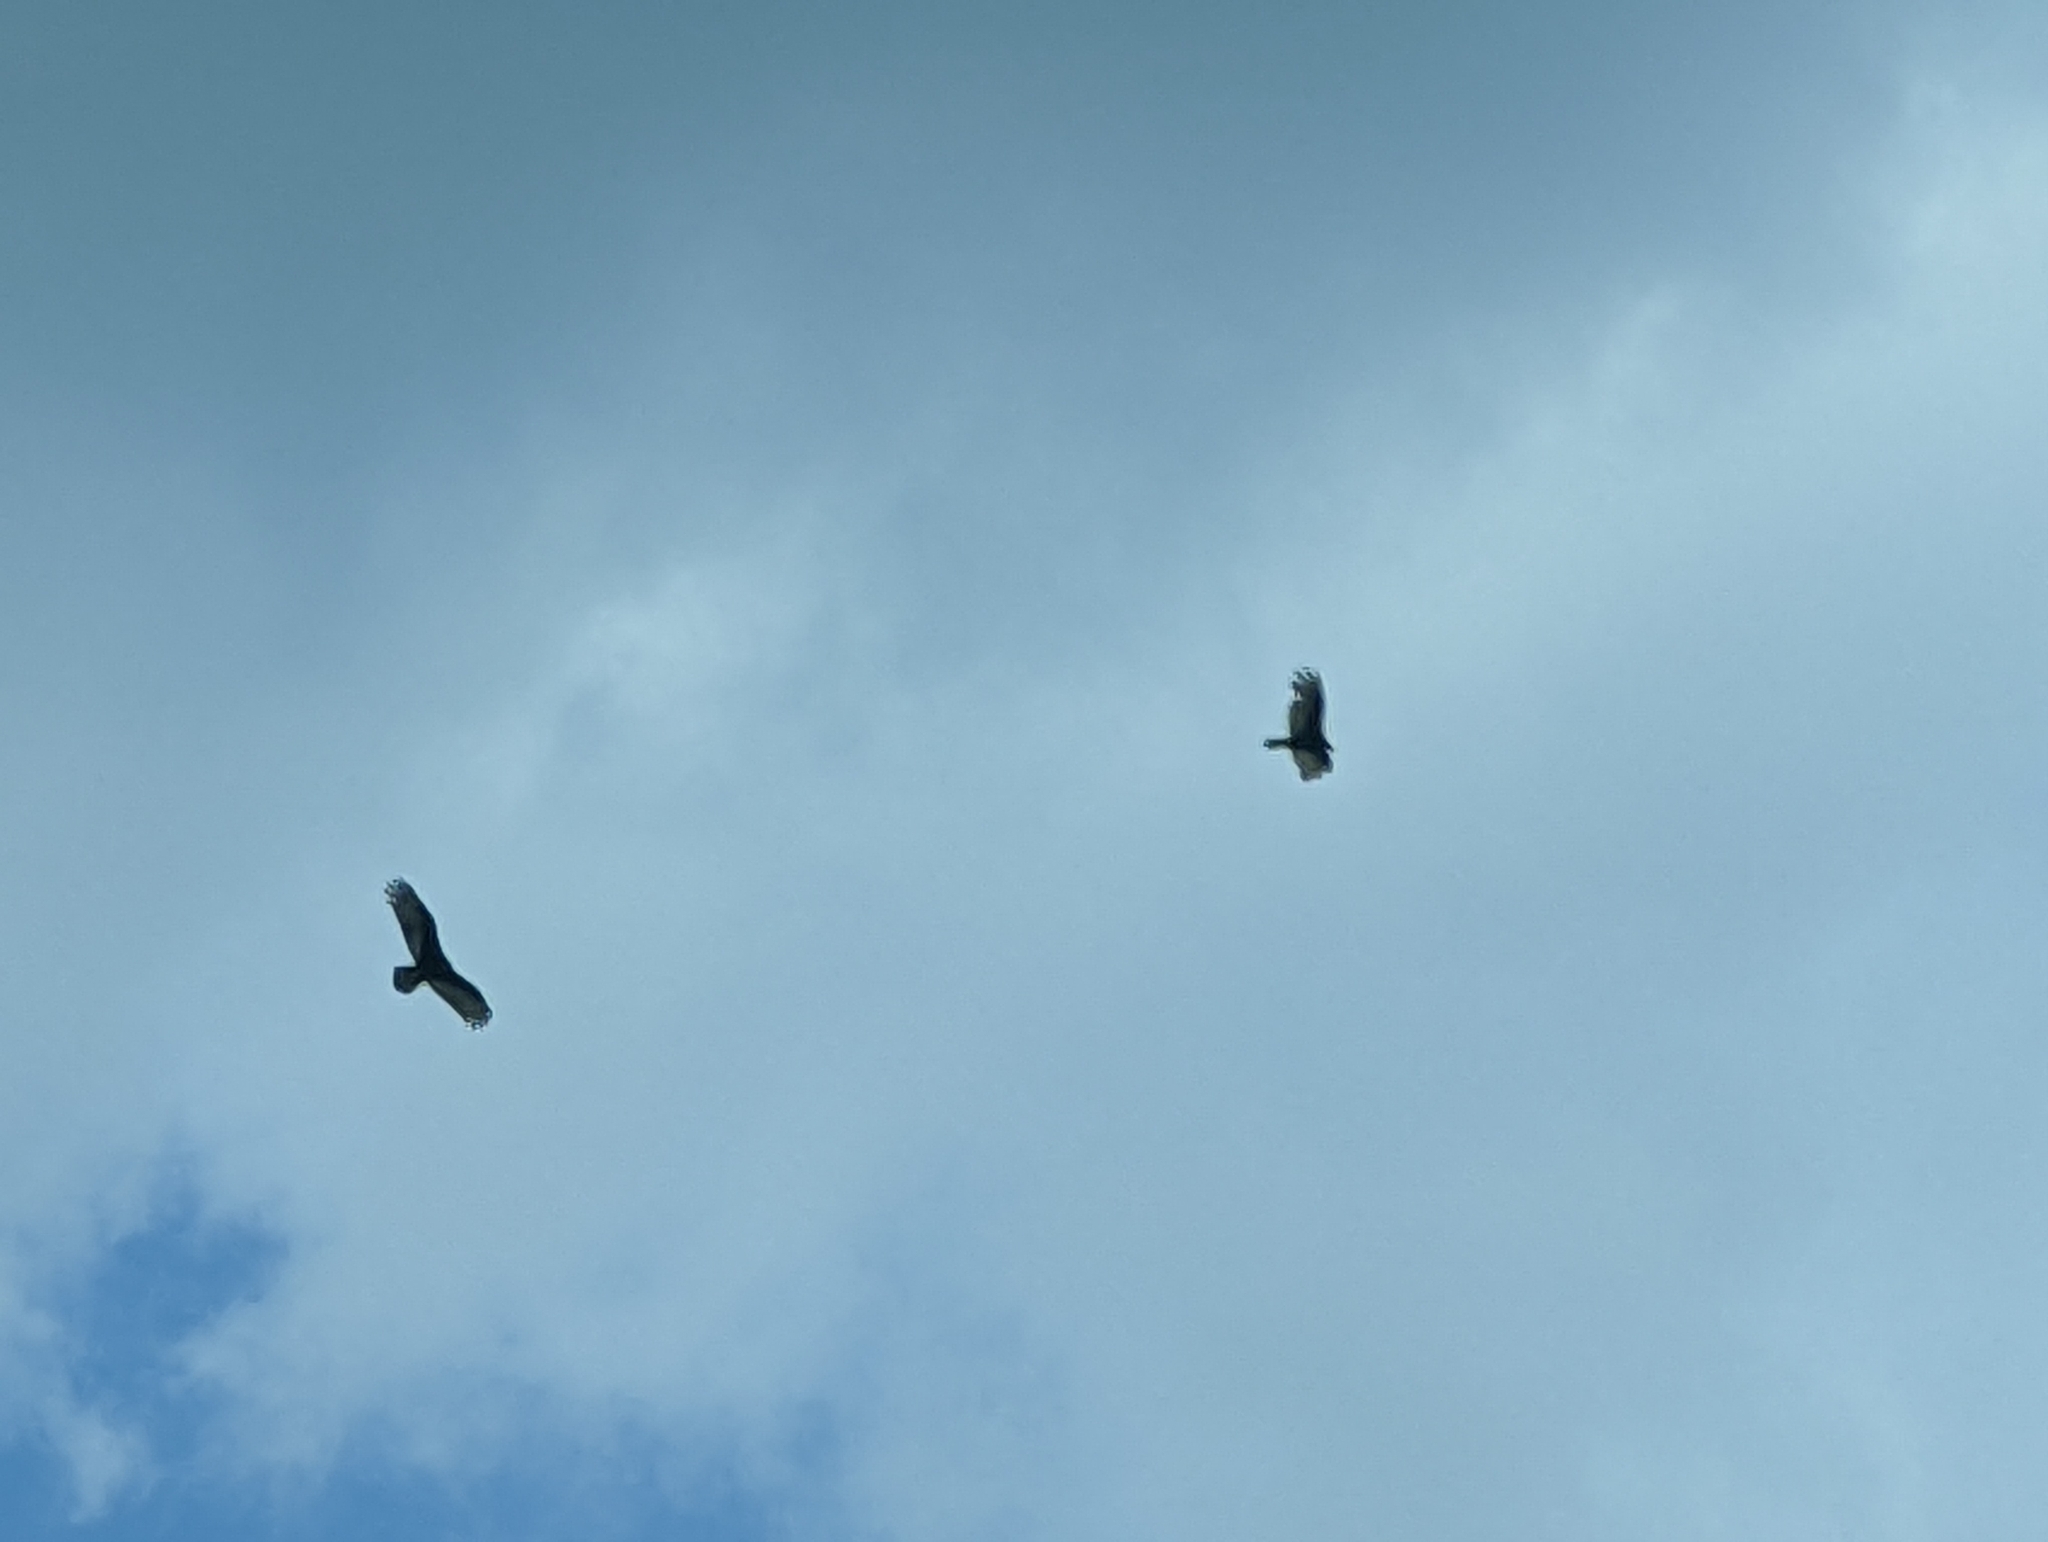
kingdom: Animalia
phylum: Chordata
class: Aves
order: Accipitriformes
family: Cathartidae
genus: Cathartes
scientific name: Cathartes aura
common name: Turkey vulture
